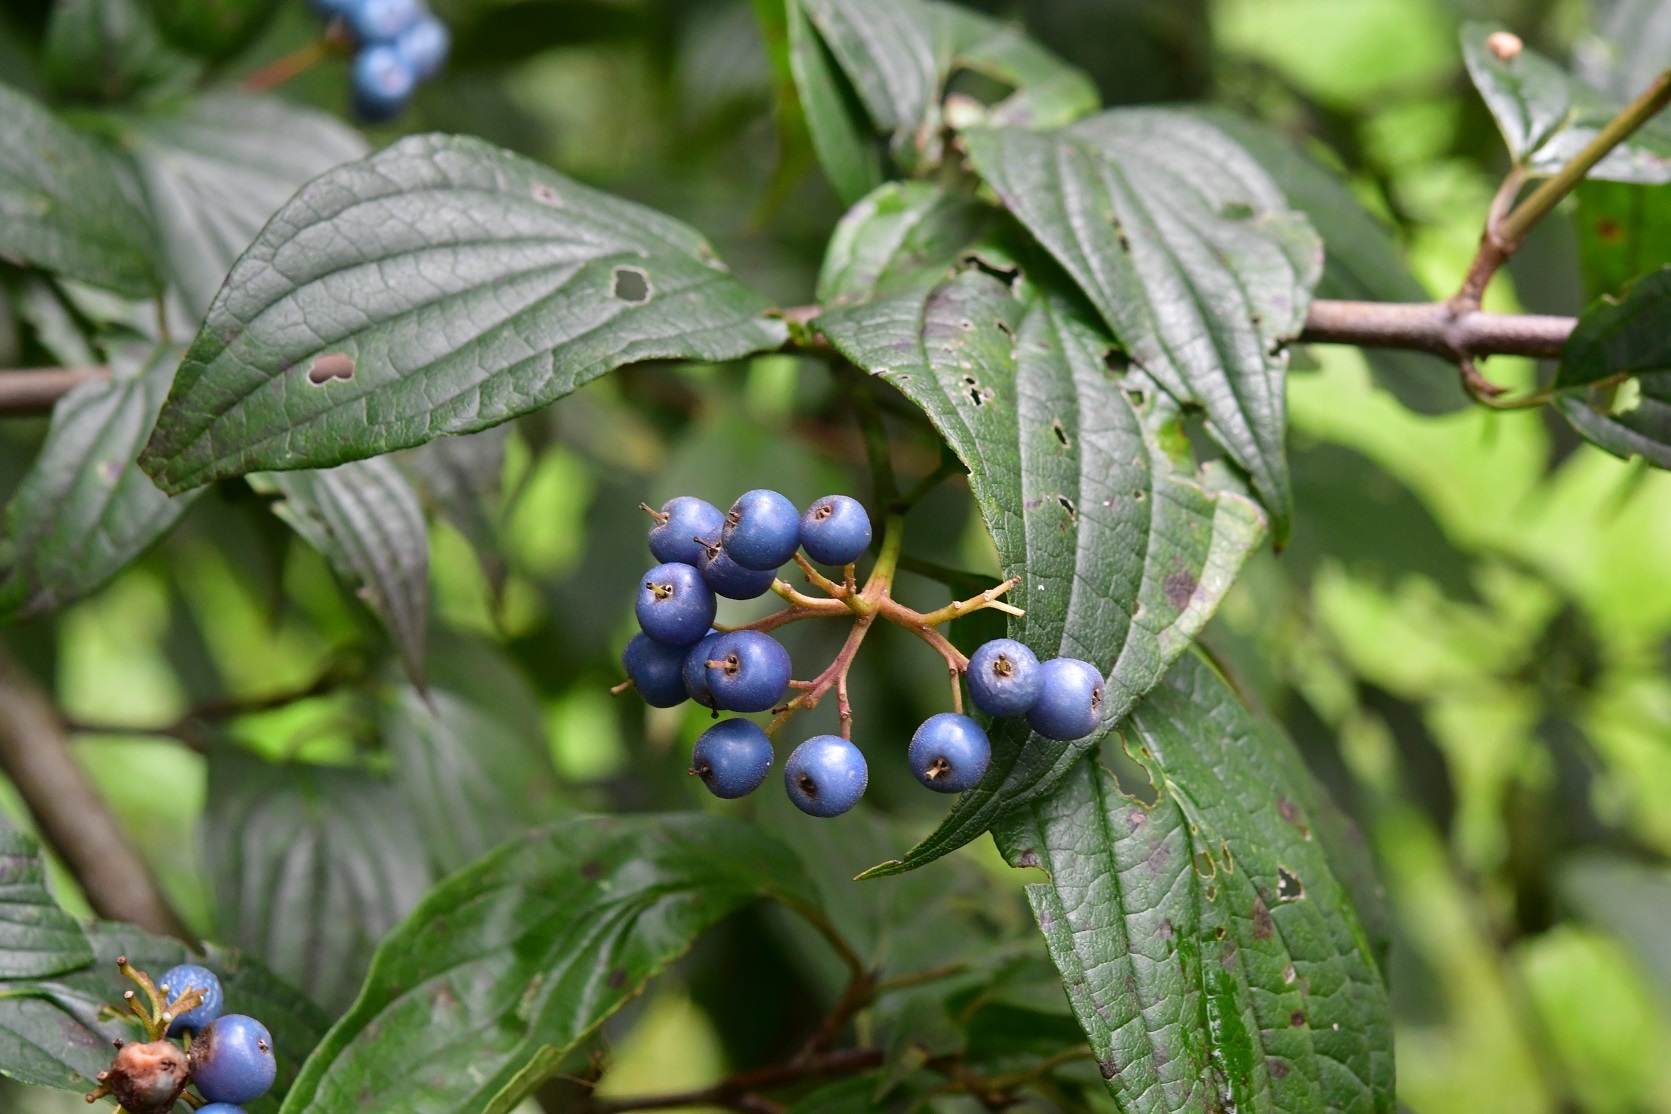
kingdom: Plantae
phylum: Tracheophyta
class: Magnoliopsida
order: Cornales
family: Cornaceae
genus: Cornus
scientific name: Cornus excelsa
